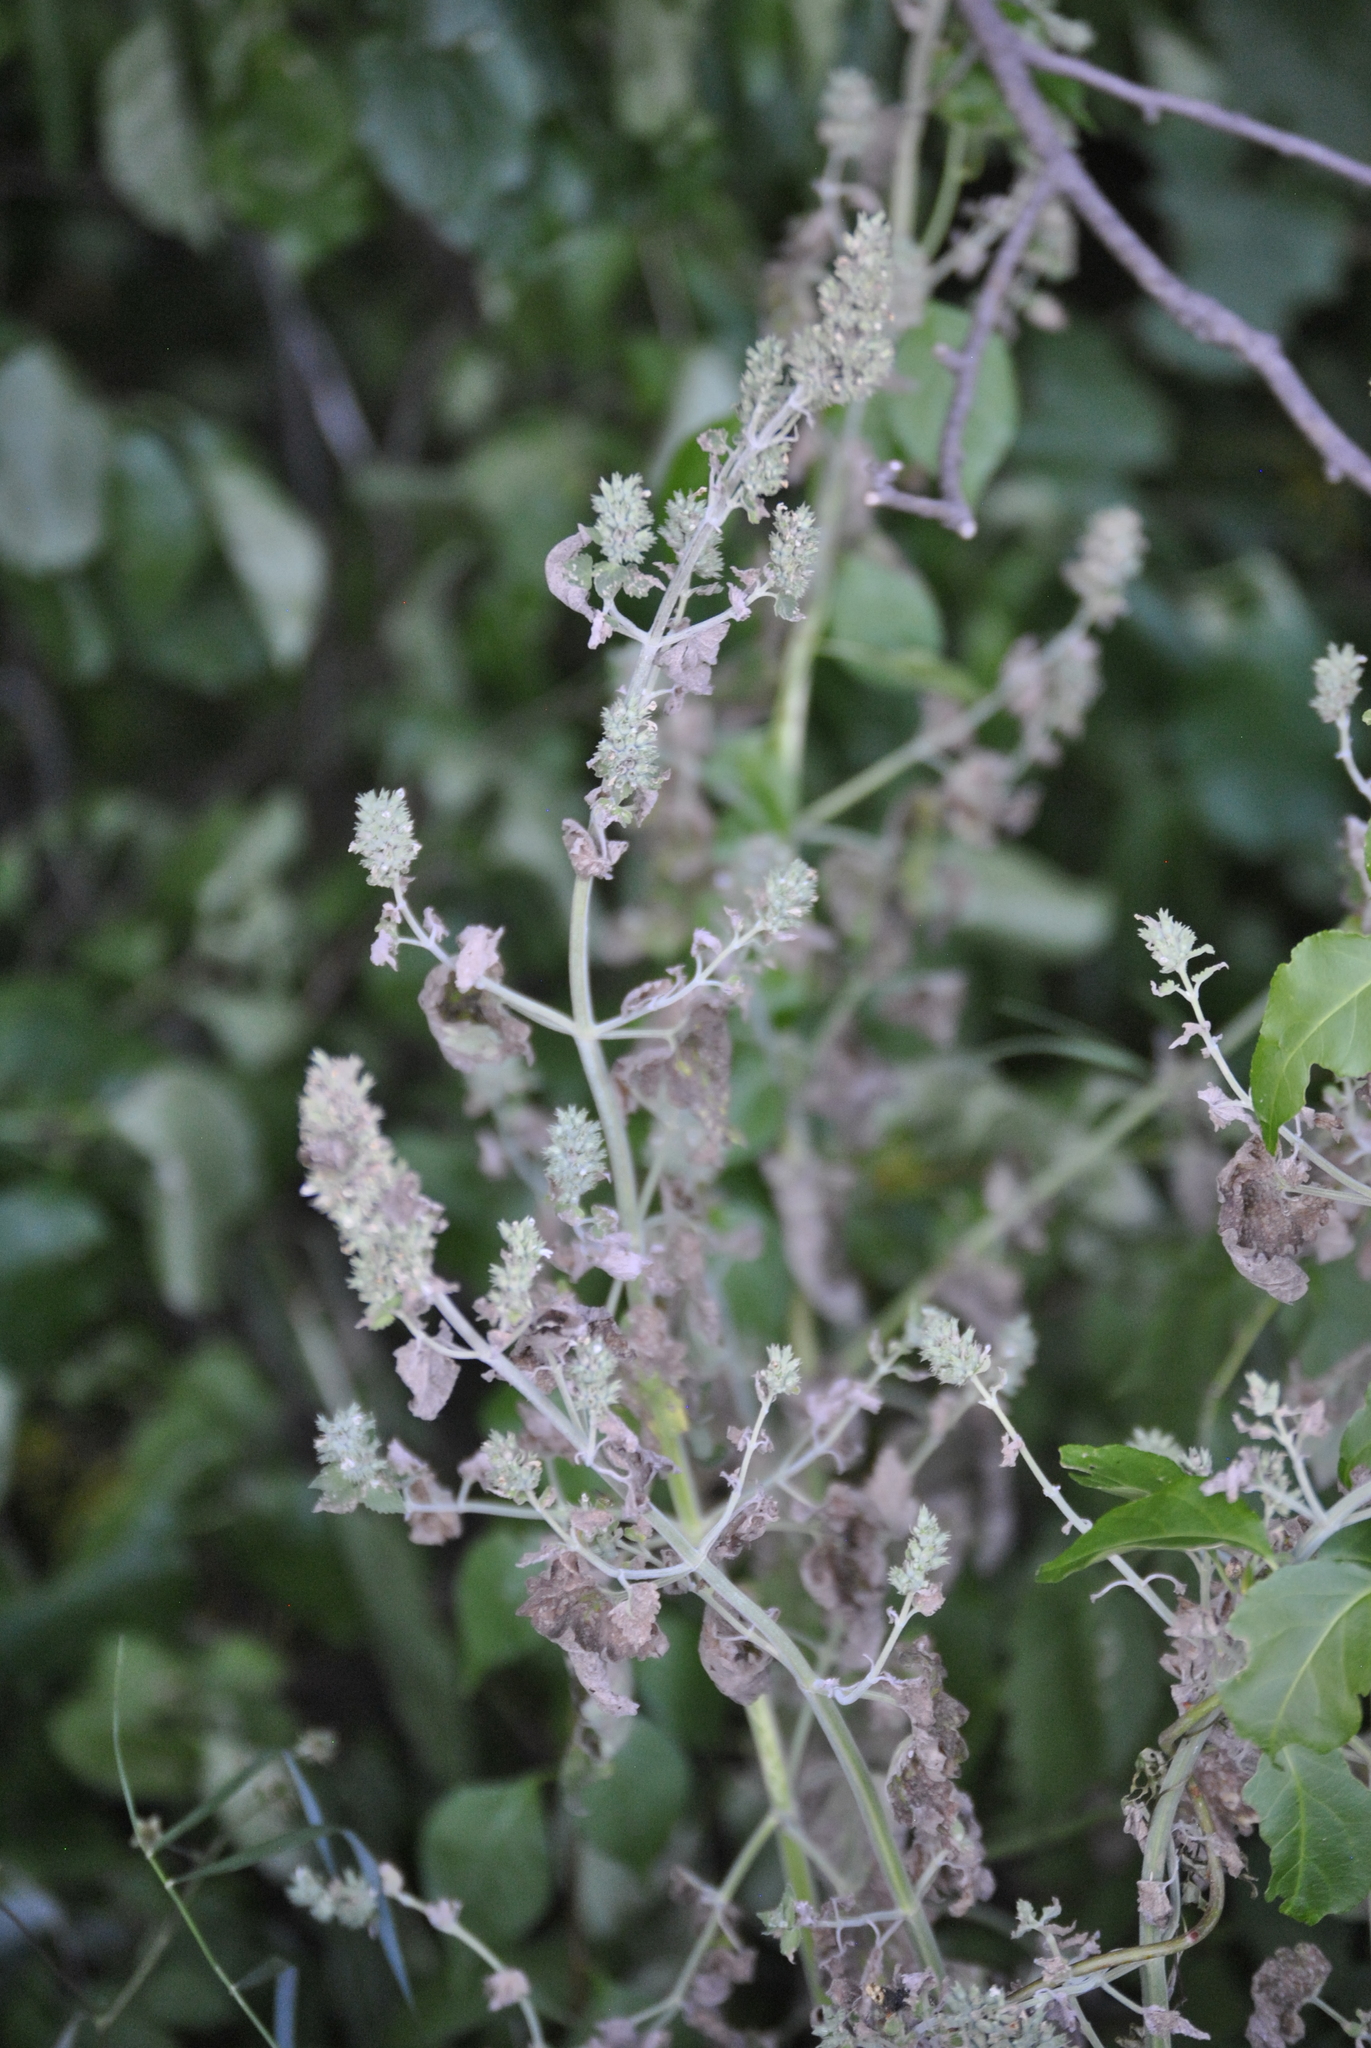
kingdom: Plantae
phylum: Tracheophyta
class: Magnoliopsida
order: Lamiales
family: Lamiaceae
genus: Nepeta
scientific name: Nepeta cataria
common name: Catnip
